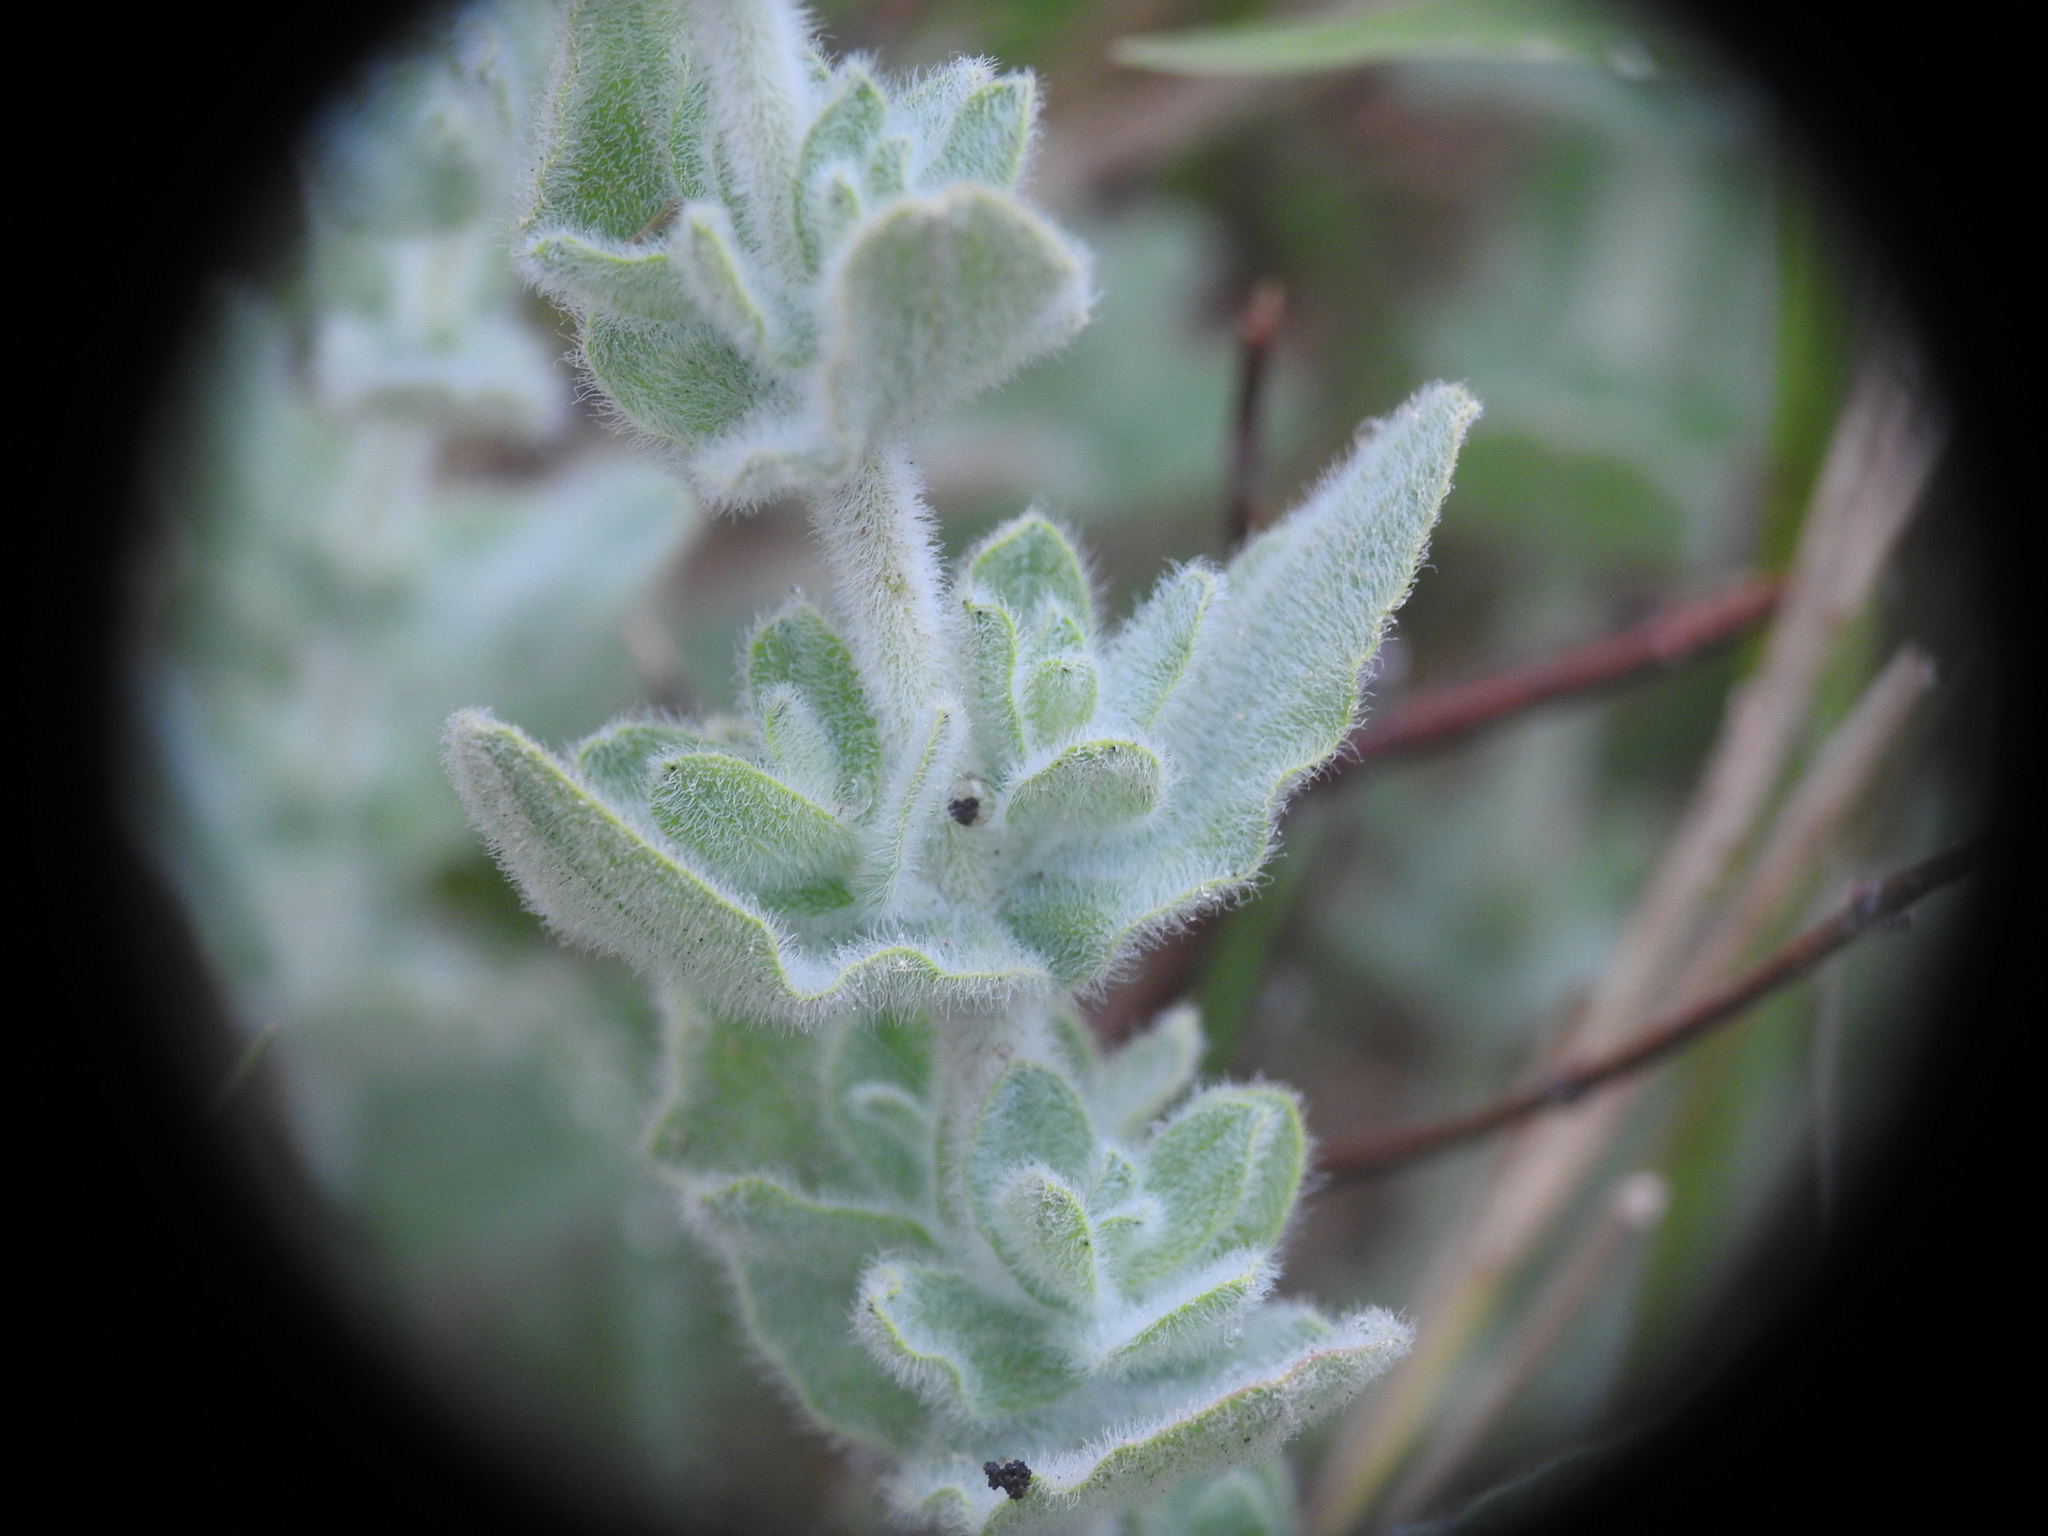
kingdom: Plantae
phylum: Tracheophyta
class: Magnoliopsida
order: Malpighiales
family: Hypericaceae
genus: Hypericum
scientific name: Hypericum tomentosum
